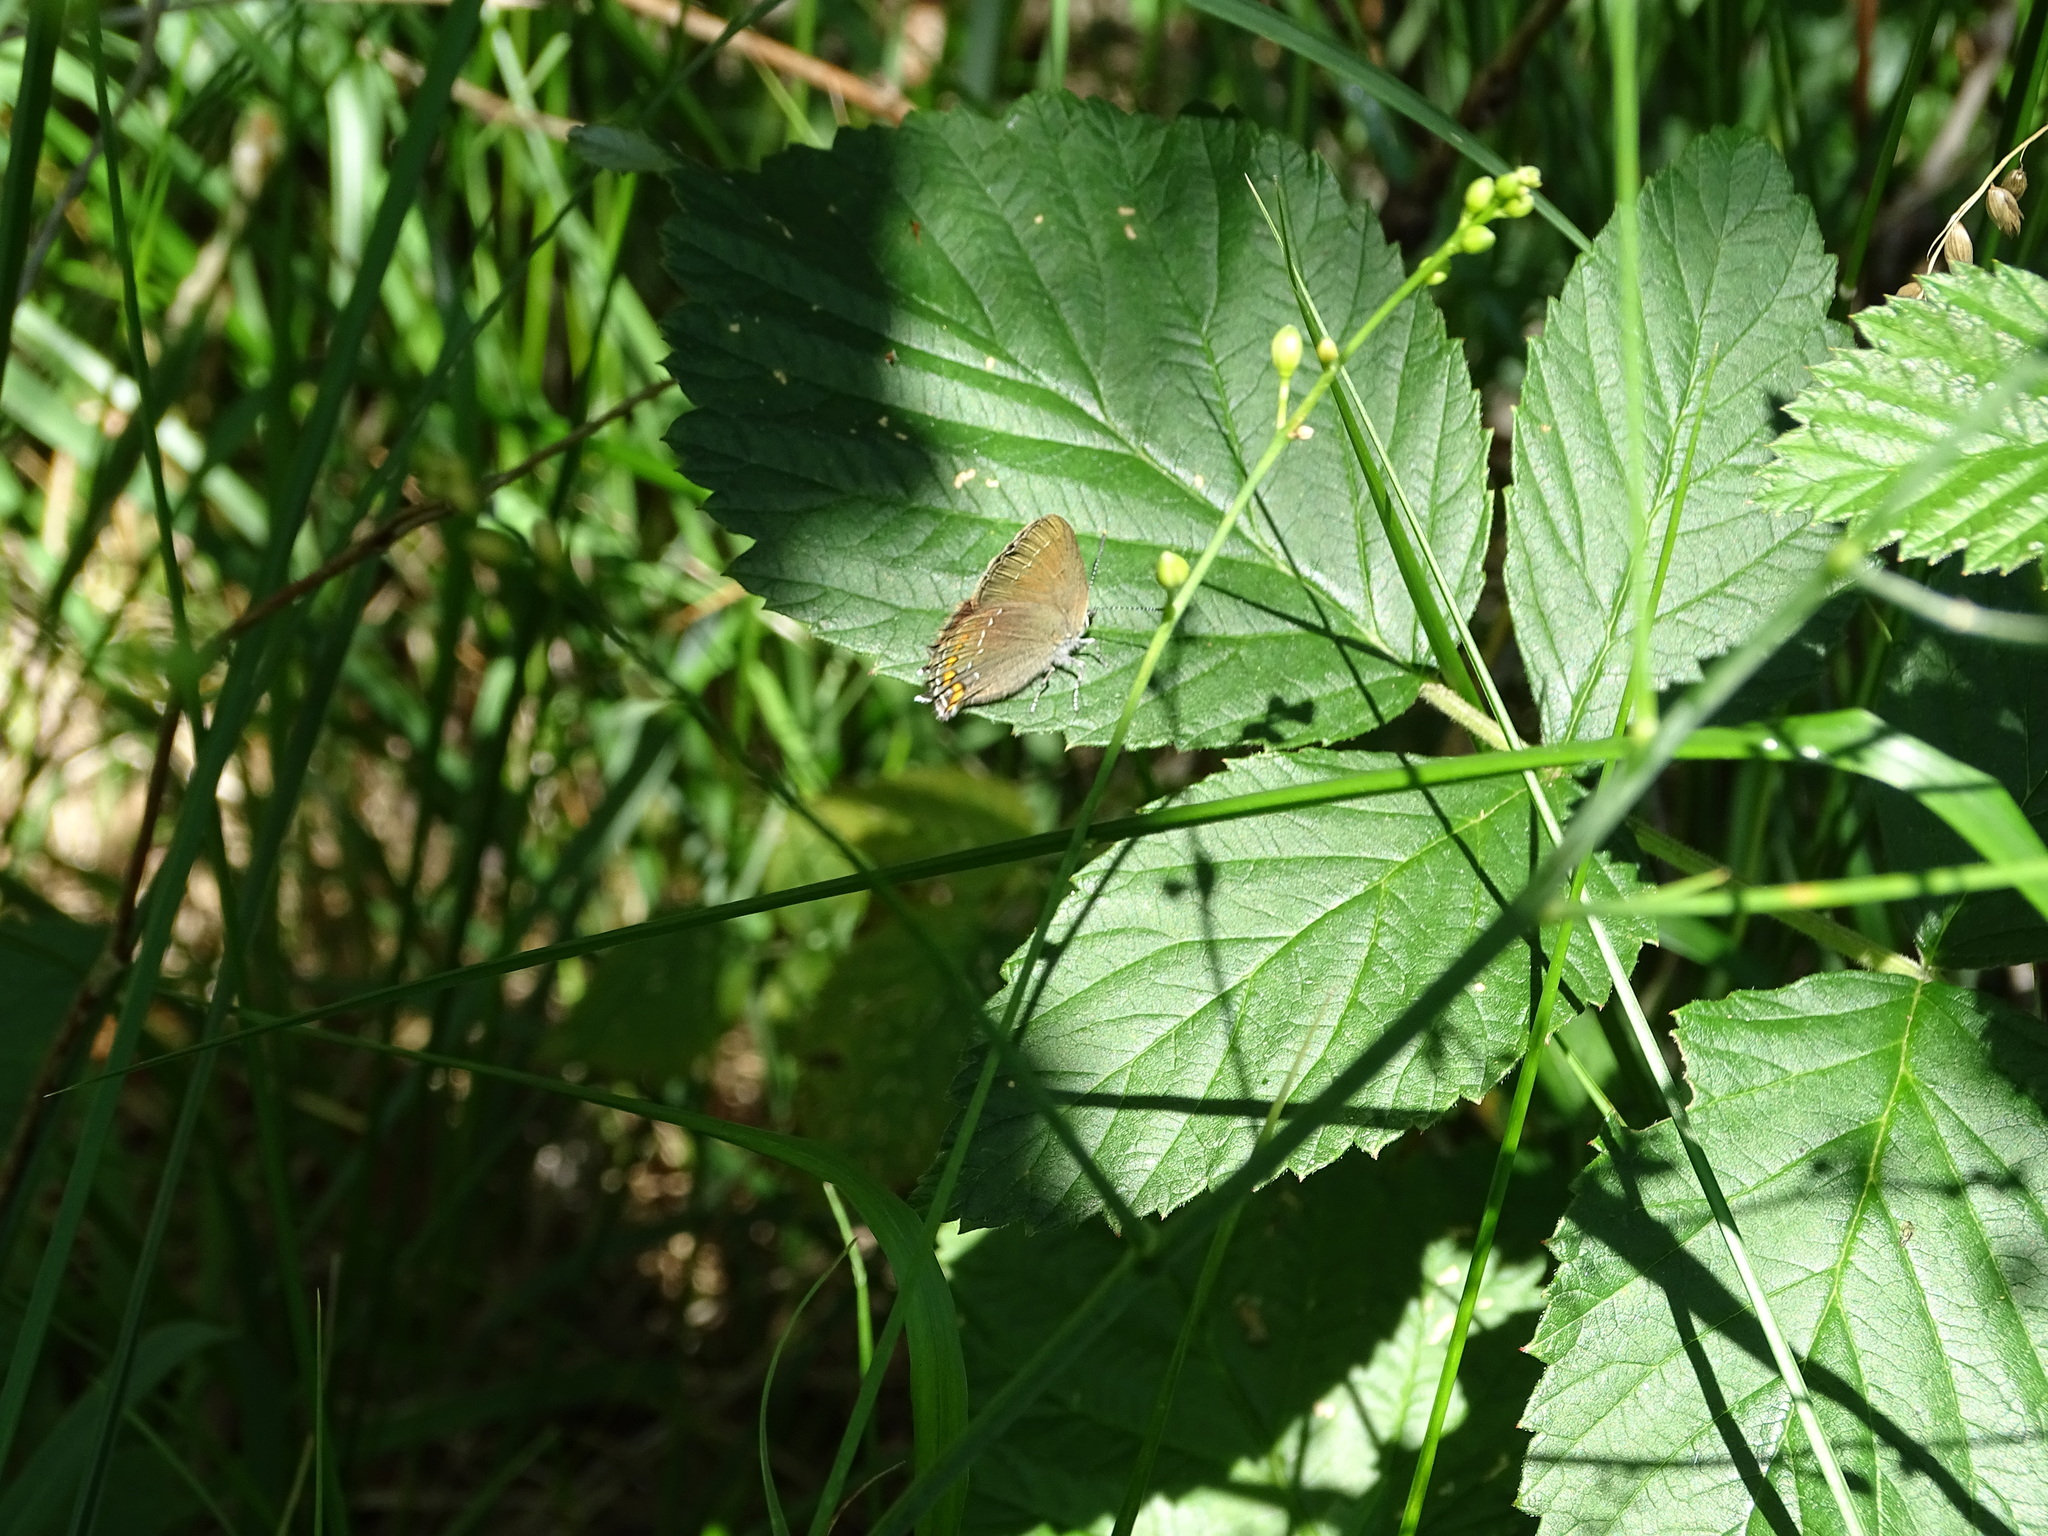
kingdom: Animalia
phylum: Arthropoda
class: Insecta
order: Lepidoptera
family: Lycaenidae
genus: Nordmannia
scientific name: Nordmannia ilicis
